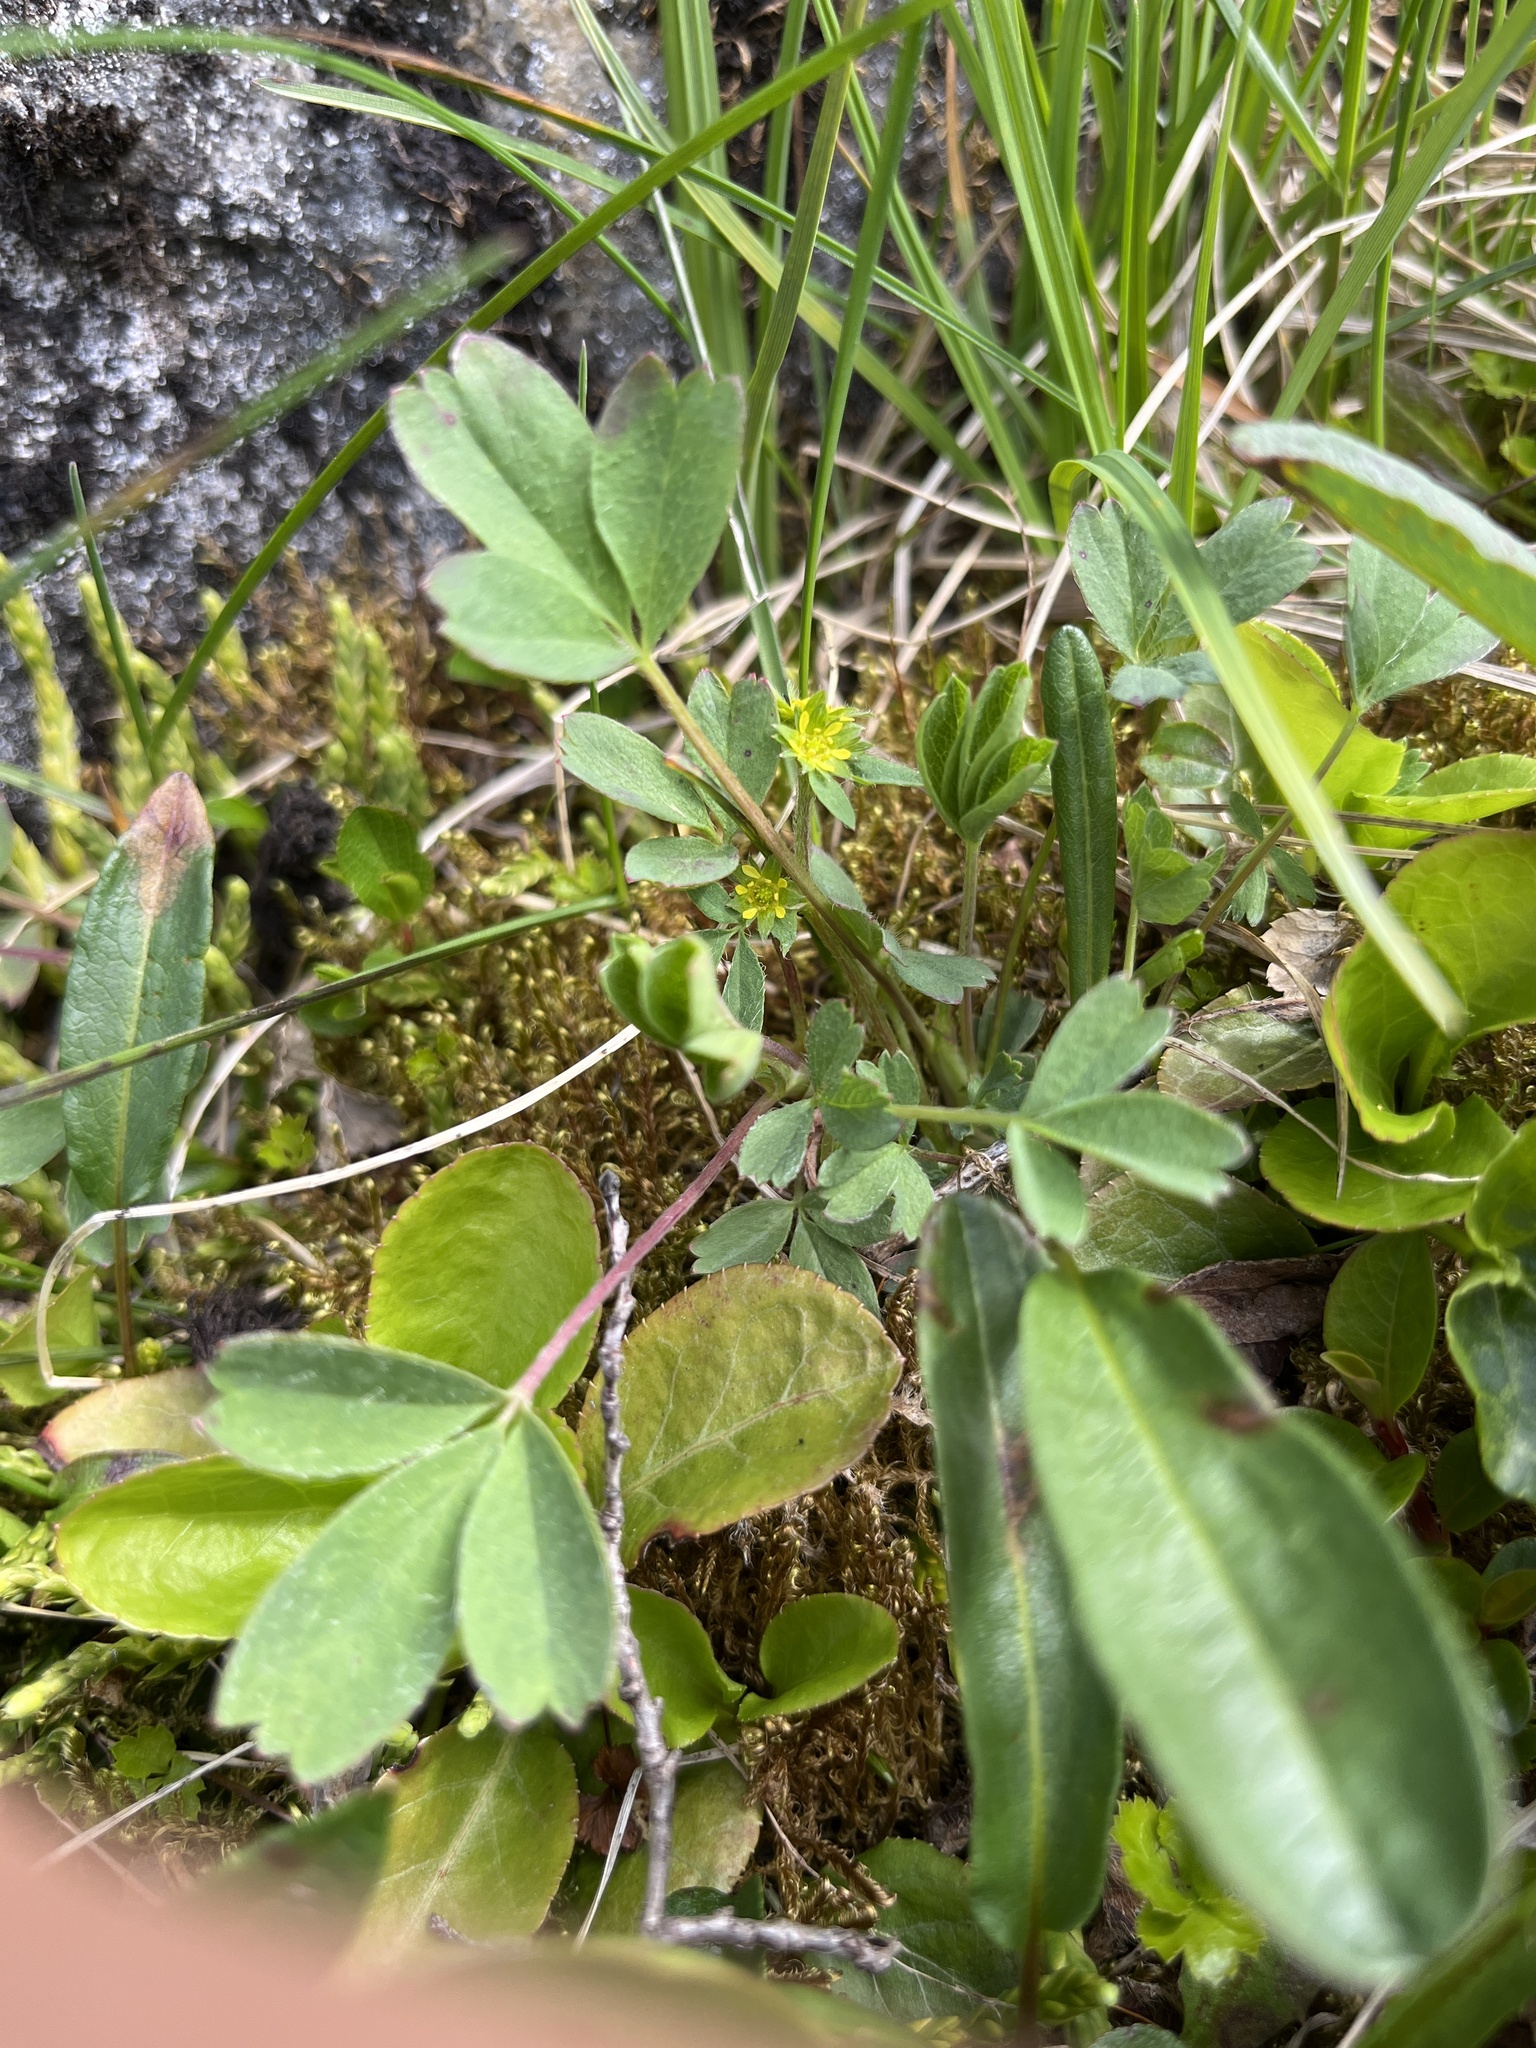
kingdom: Plantae
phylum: Tracheophyta
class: Magnoliopsida
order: Rosales
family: Rosaceae
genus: Sibbaldia
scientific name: Sibbaldia procumbens
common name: Creeping sibbaldia
